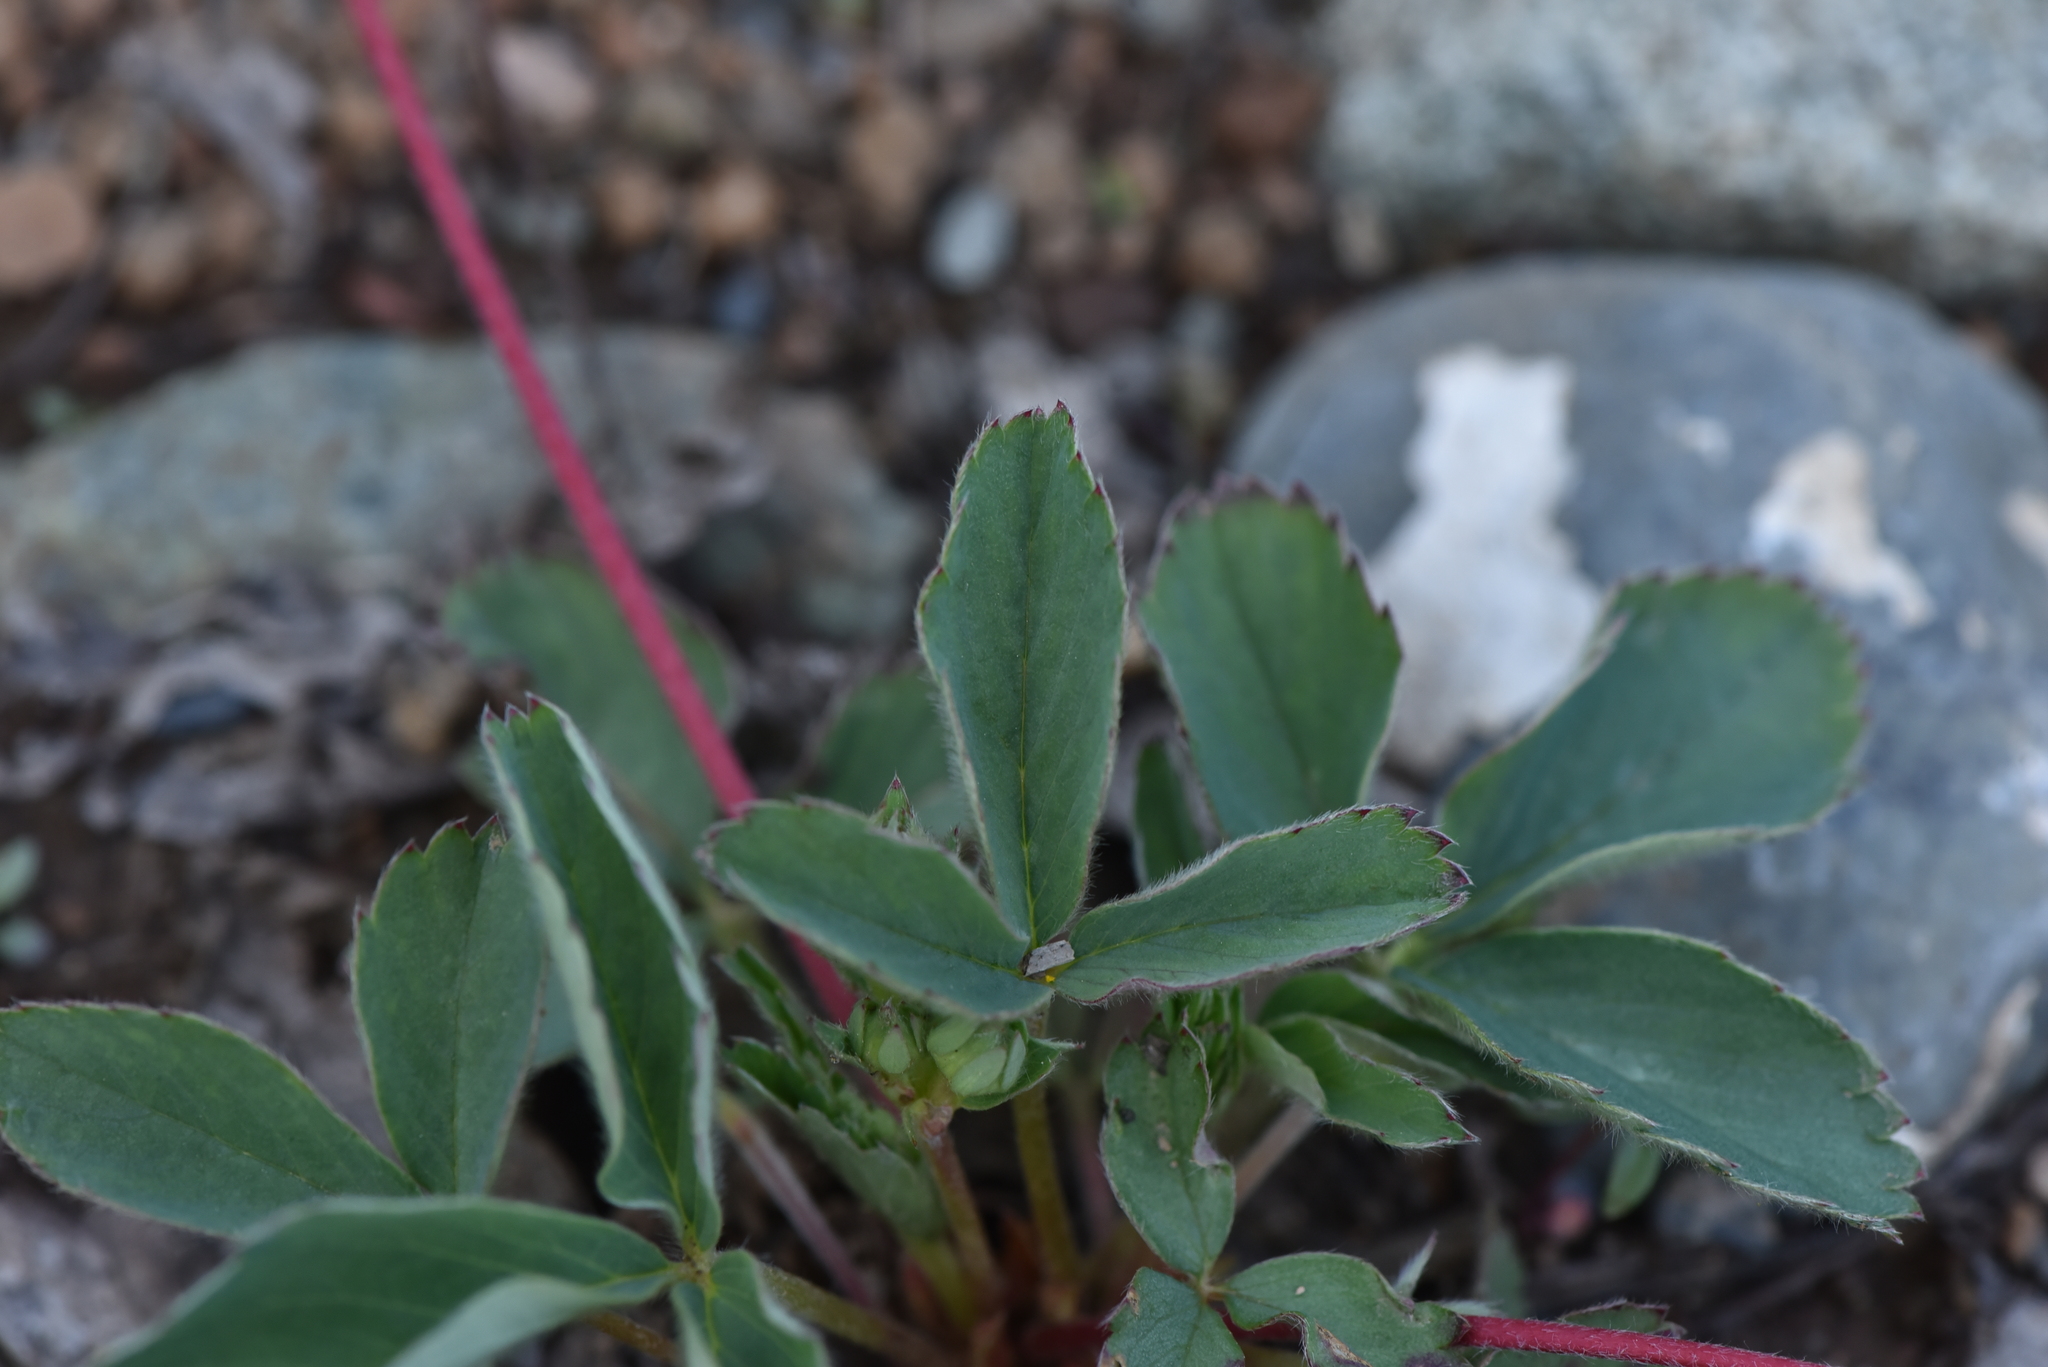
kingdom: Plantae
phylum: Tracheophyta
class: Magnoliopsida
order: Rosales
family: Rosaceae
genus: Fragaria
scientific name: Fragaria virginiana
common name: Thickleaved wild strawberry
